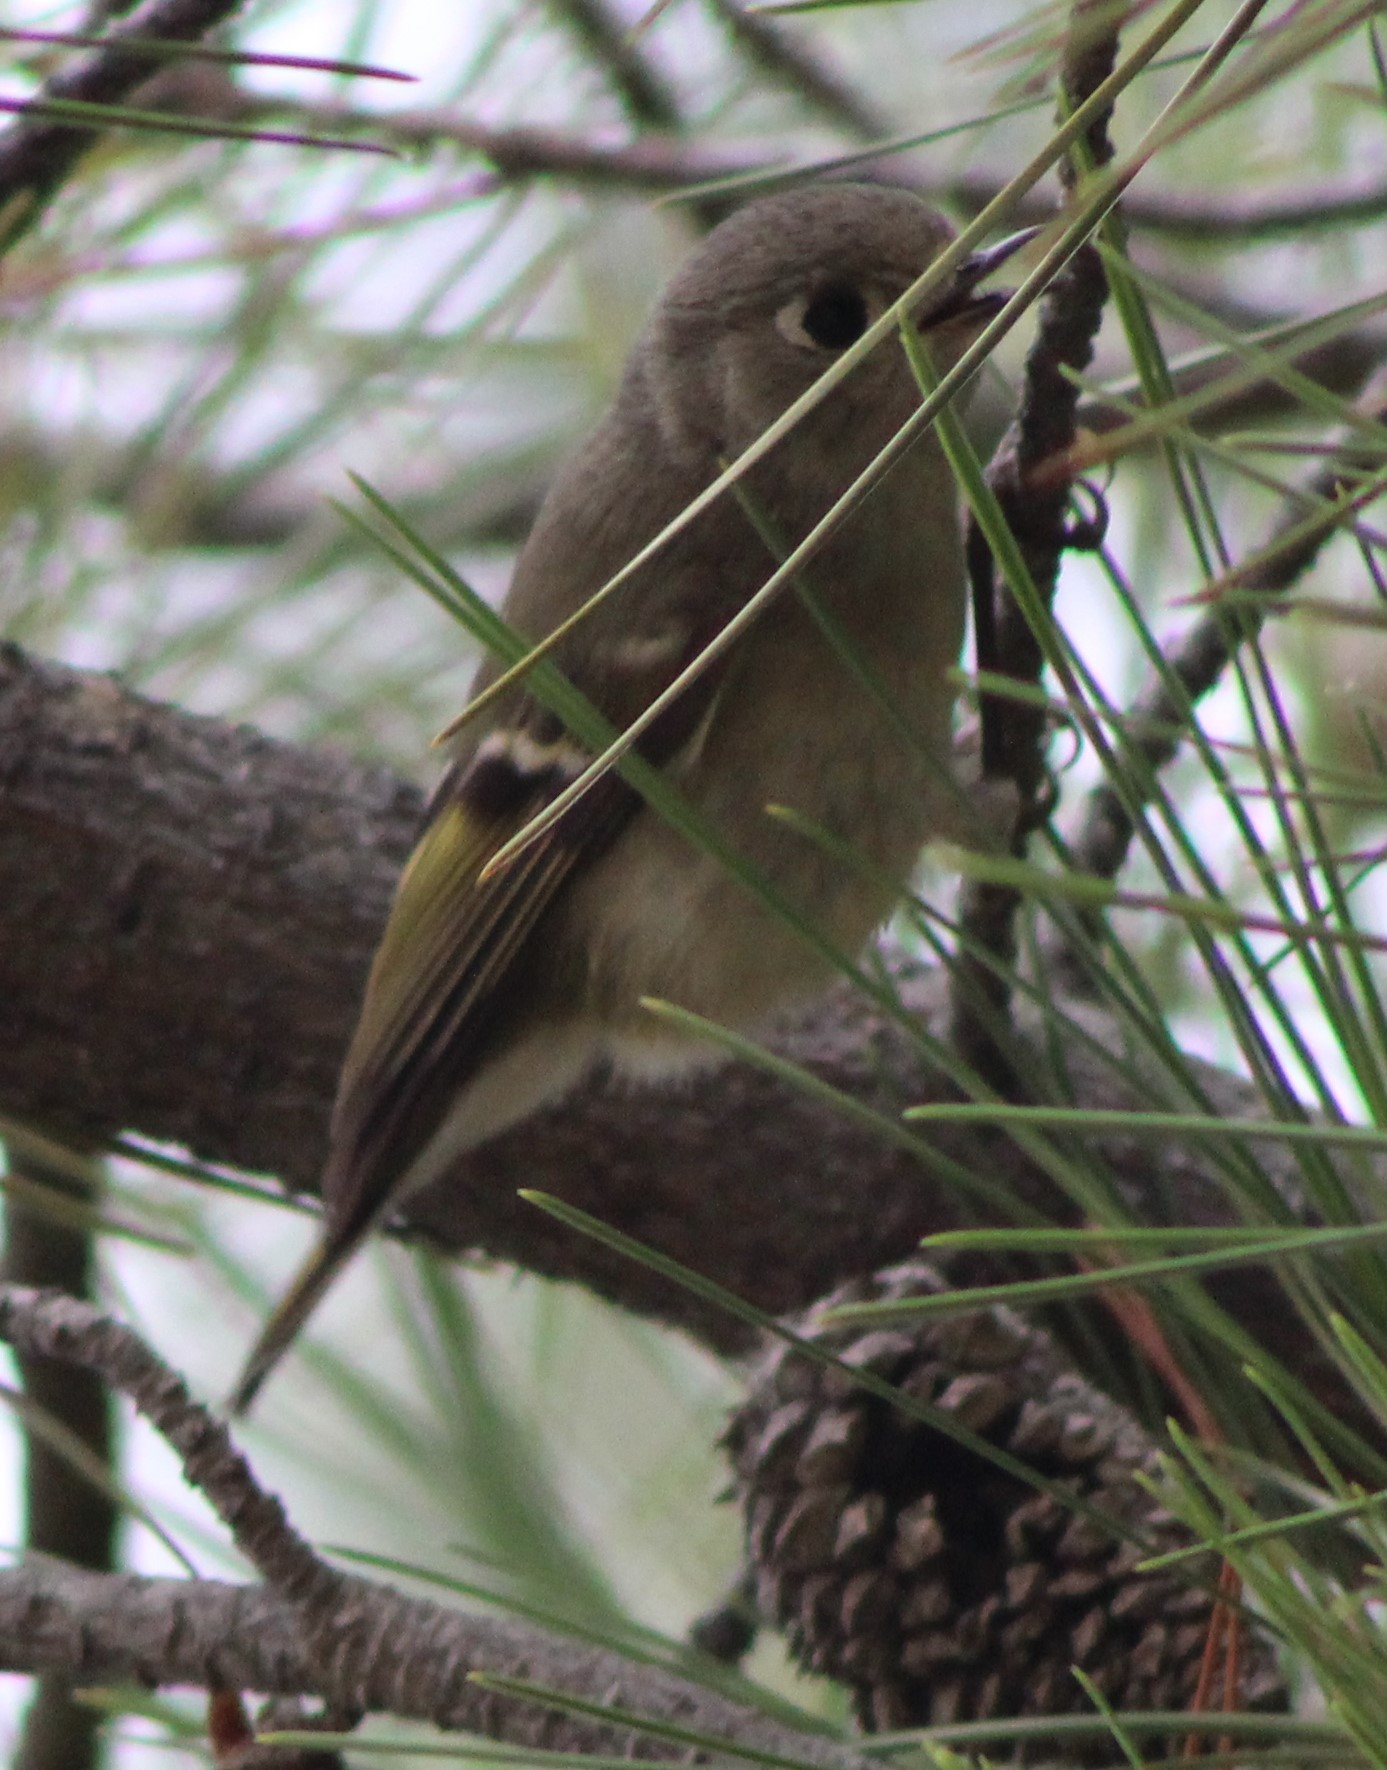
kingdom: Animalia
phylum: Chordata
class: Aves
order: Passeriformes
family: Regulidae
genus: Regulus
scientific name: Regulus calendula
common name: Ruby-crowned kinglet
